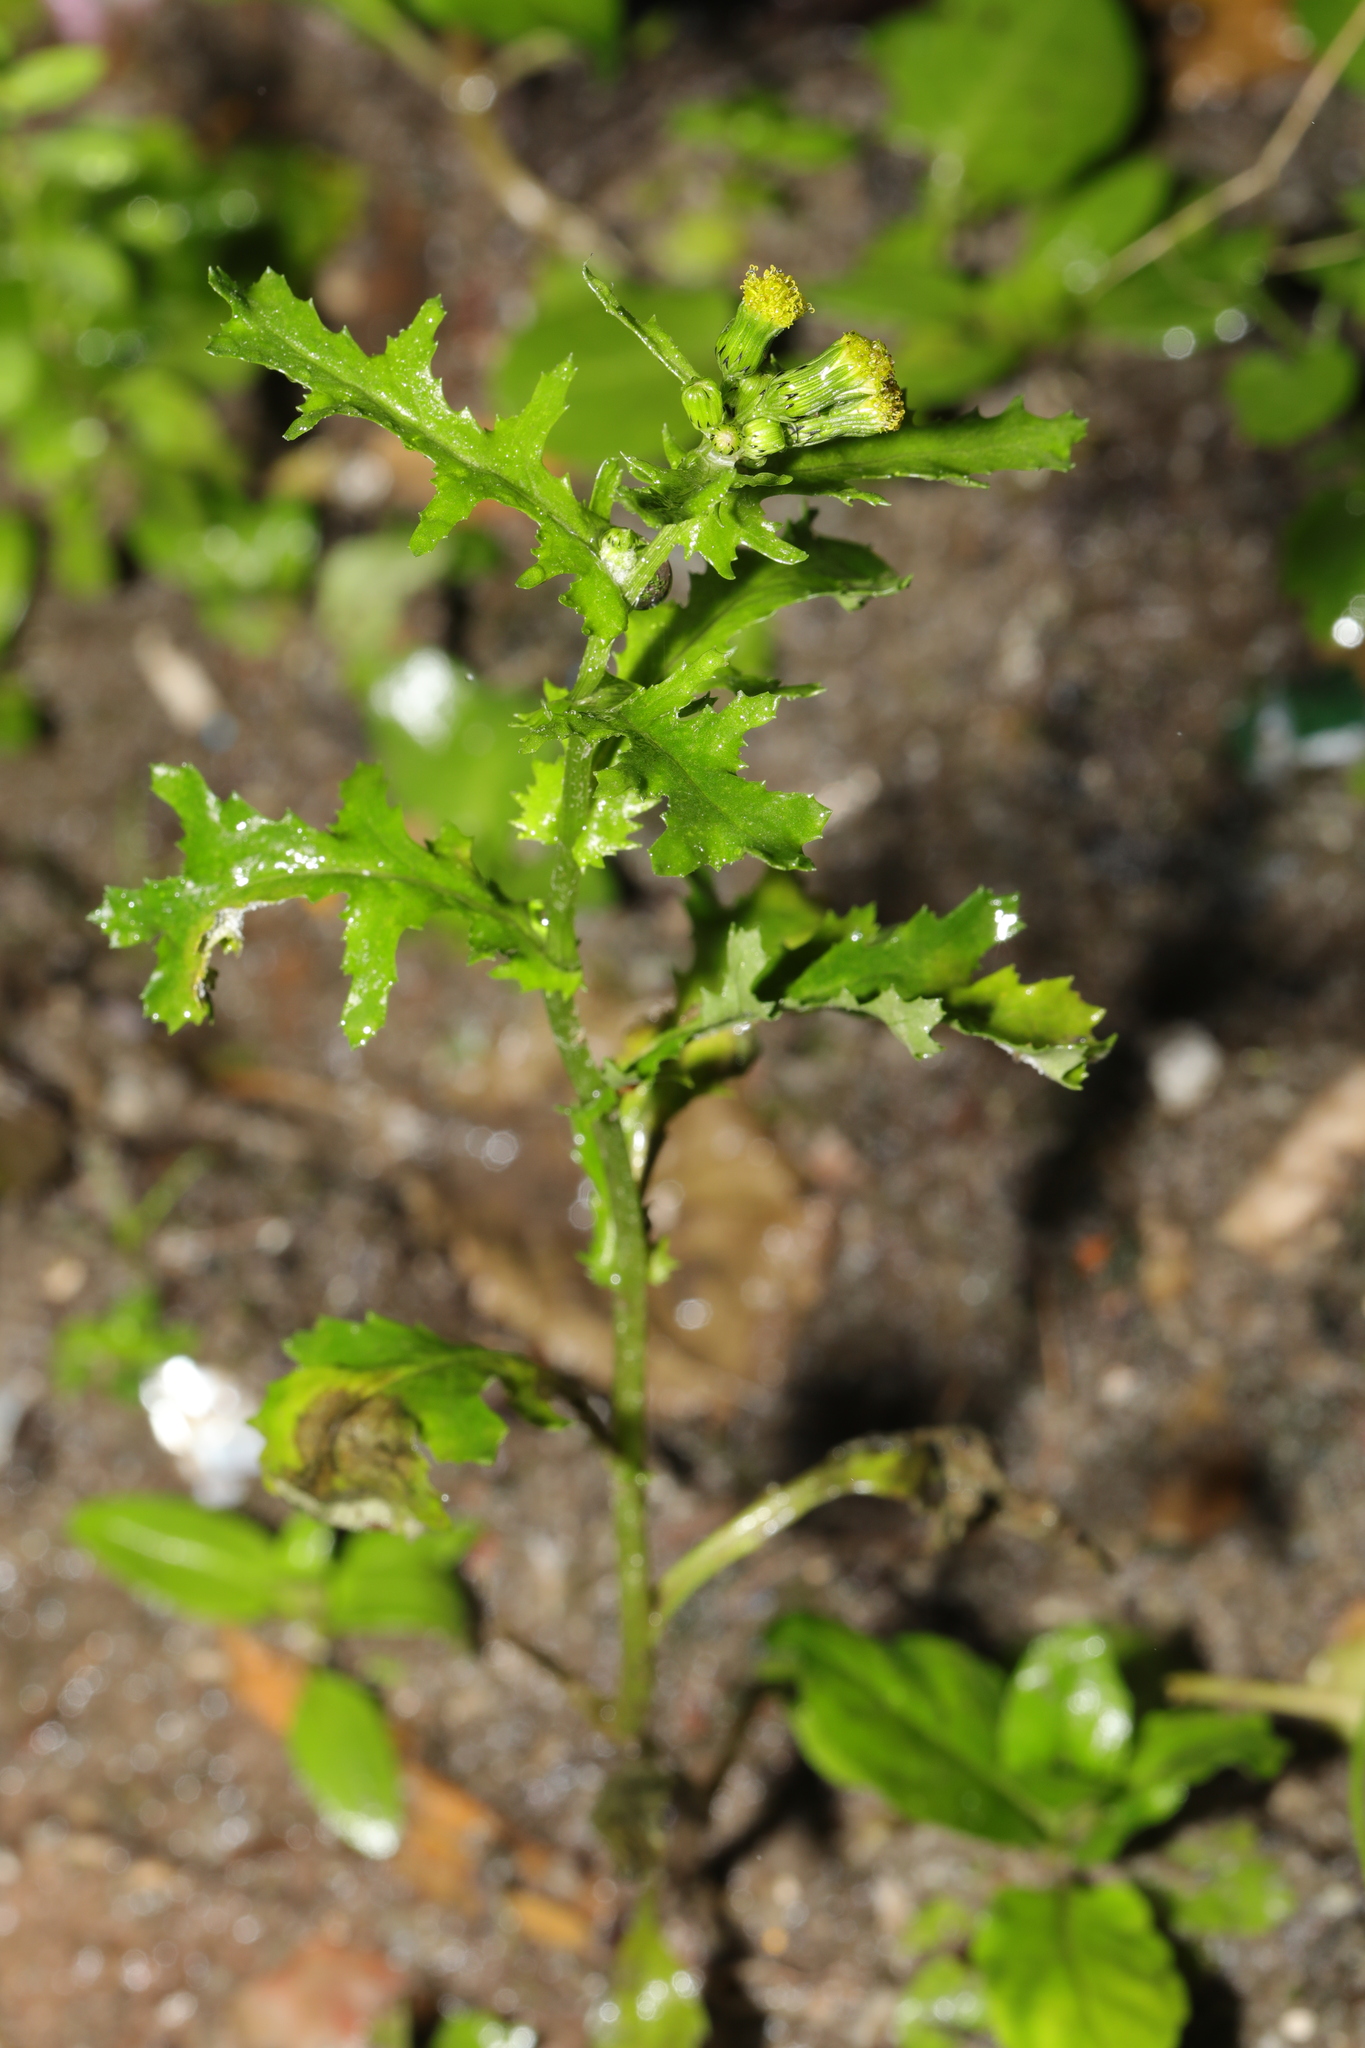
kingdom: Plantae
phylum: Tracheophyta
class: Magnoliopsida
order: Asterales
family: Asteraceae
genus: Senecio
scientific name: Senecio vulgaris
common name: Old-man-in-the-spring
